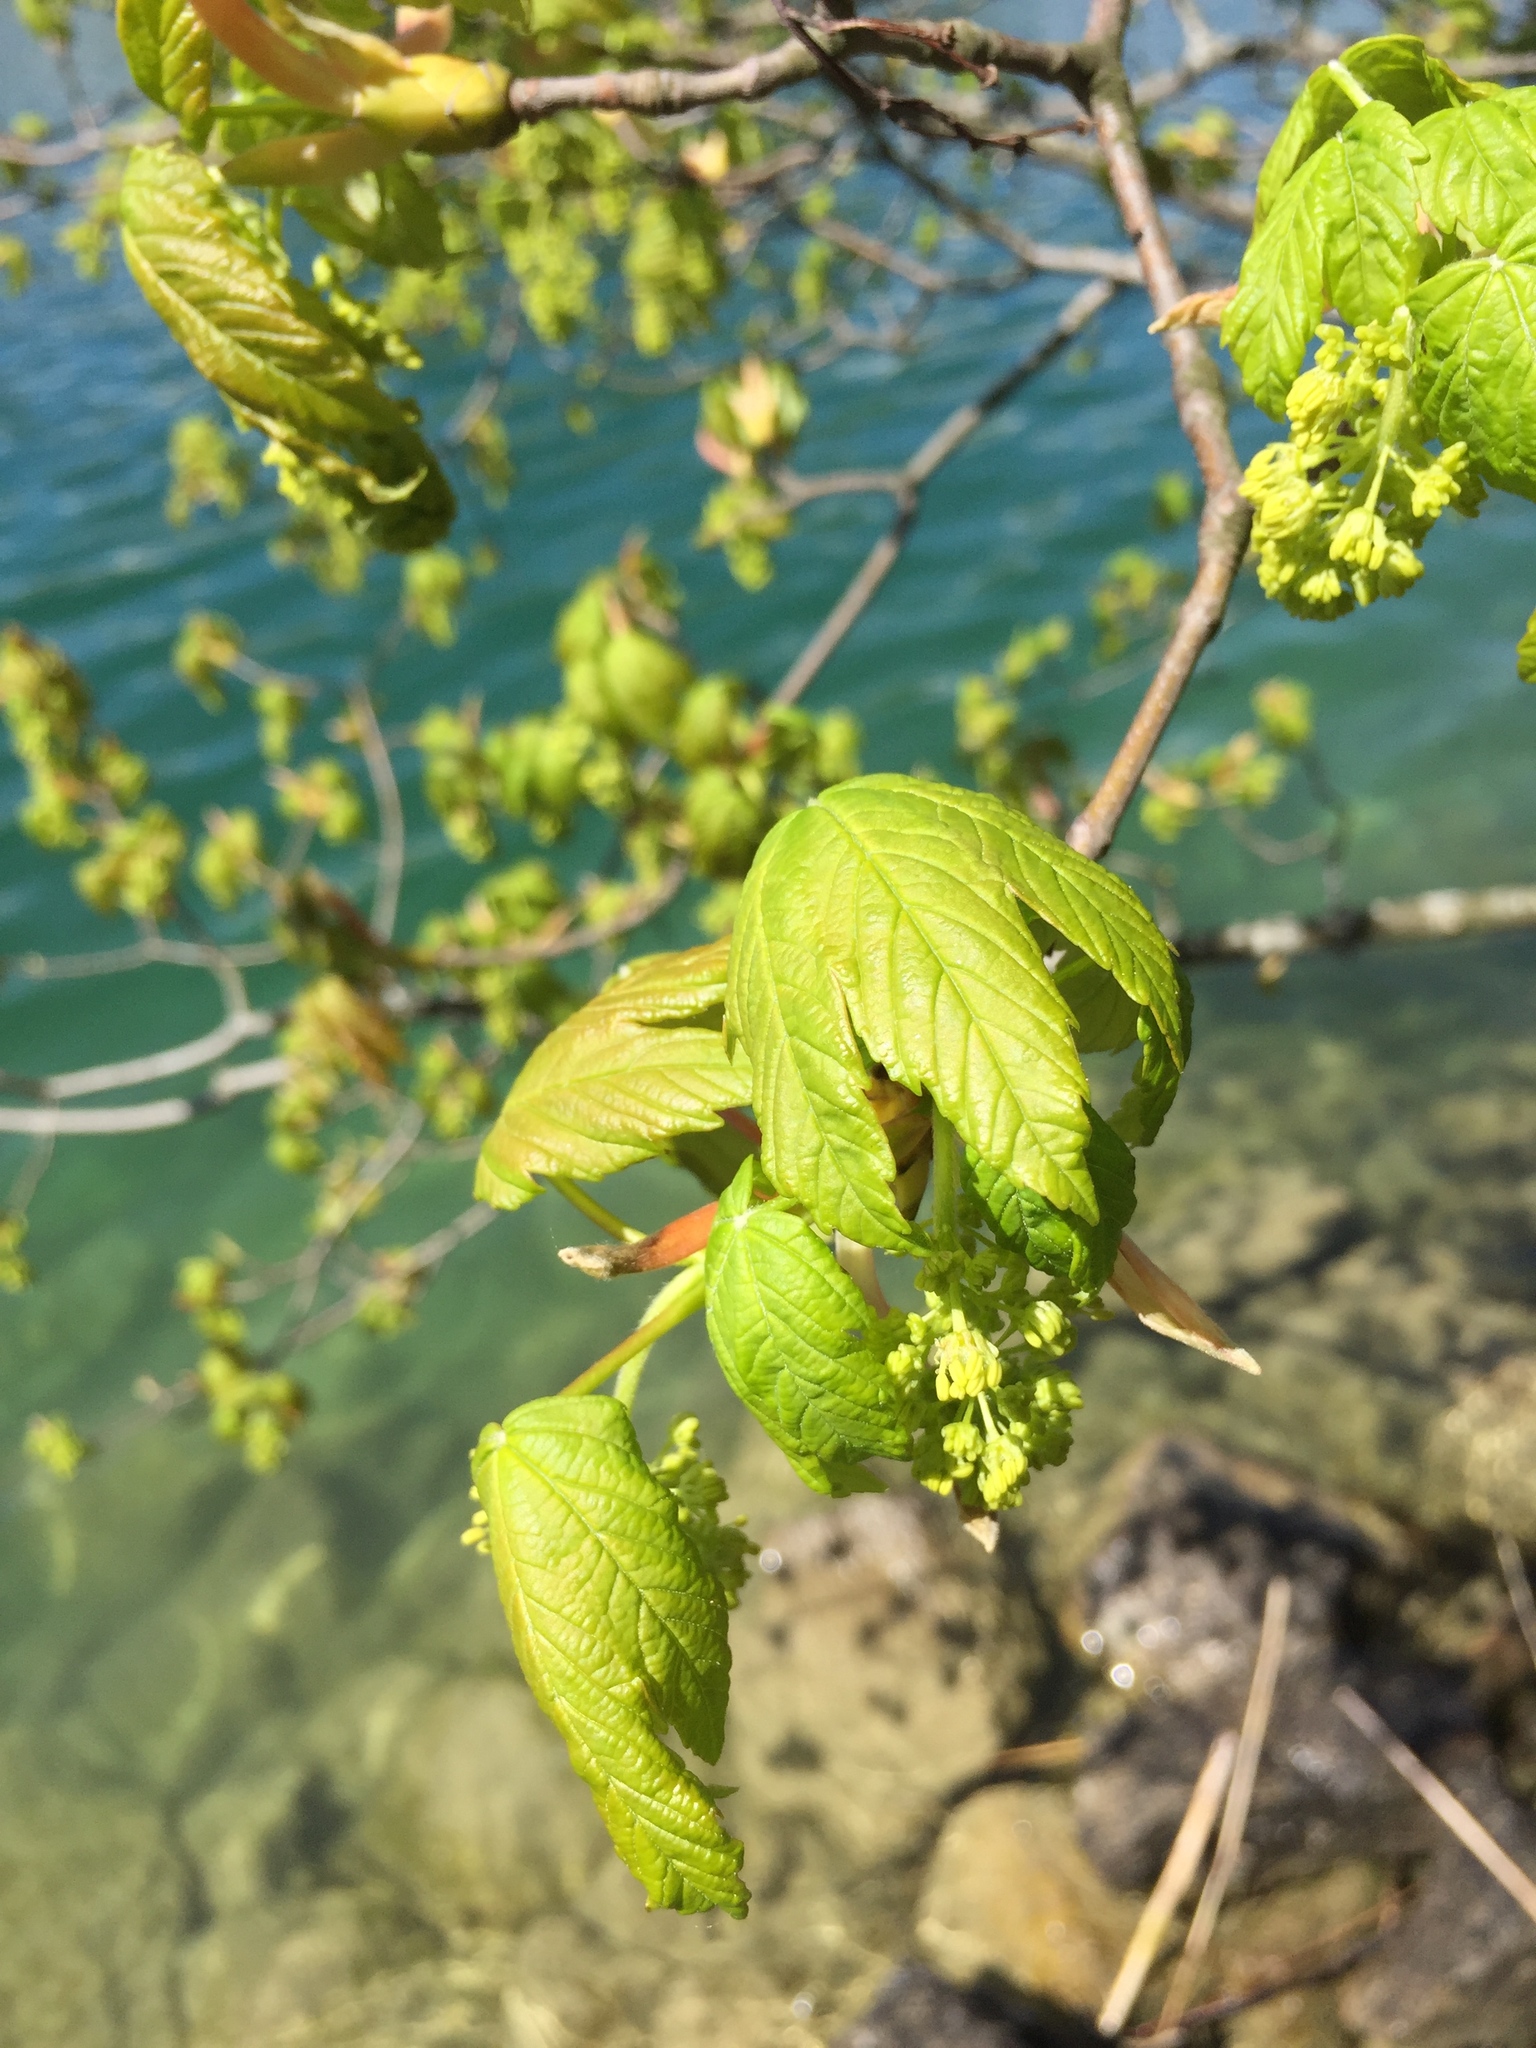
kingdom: Plantae
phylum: Tracheophyta
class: Magnoliopsida
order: Sapindales
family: Sapindaceae
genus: Acer
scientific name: Acer pseudoplatanus
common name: Sycamore
